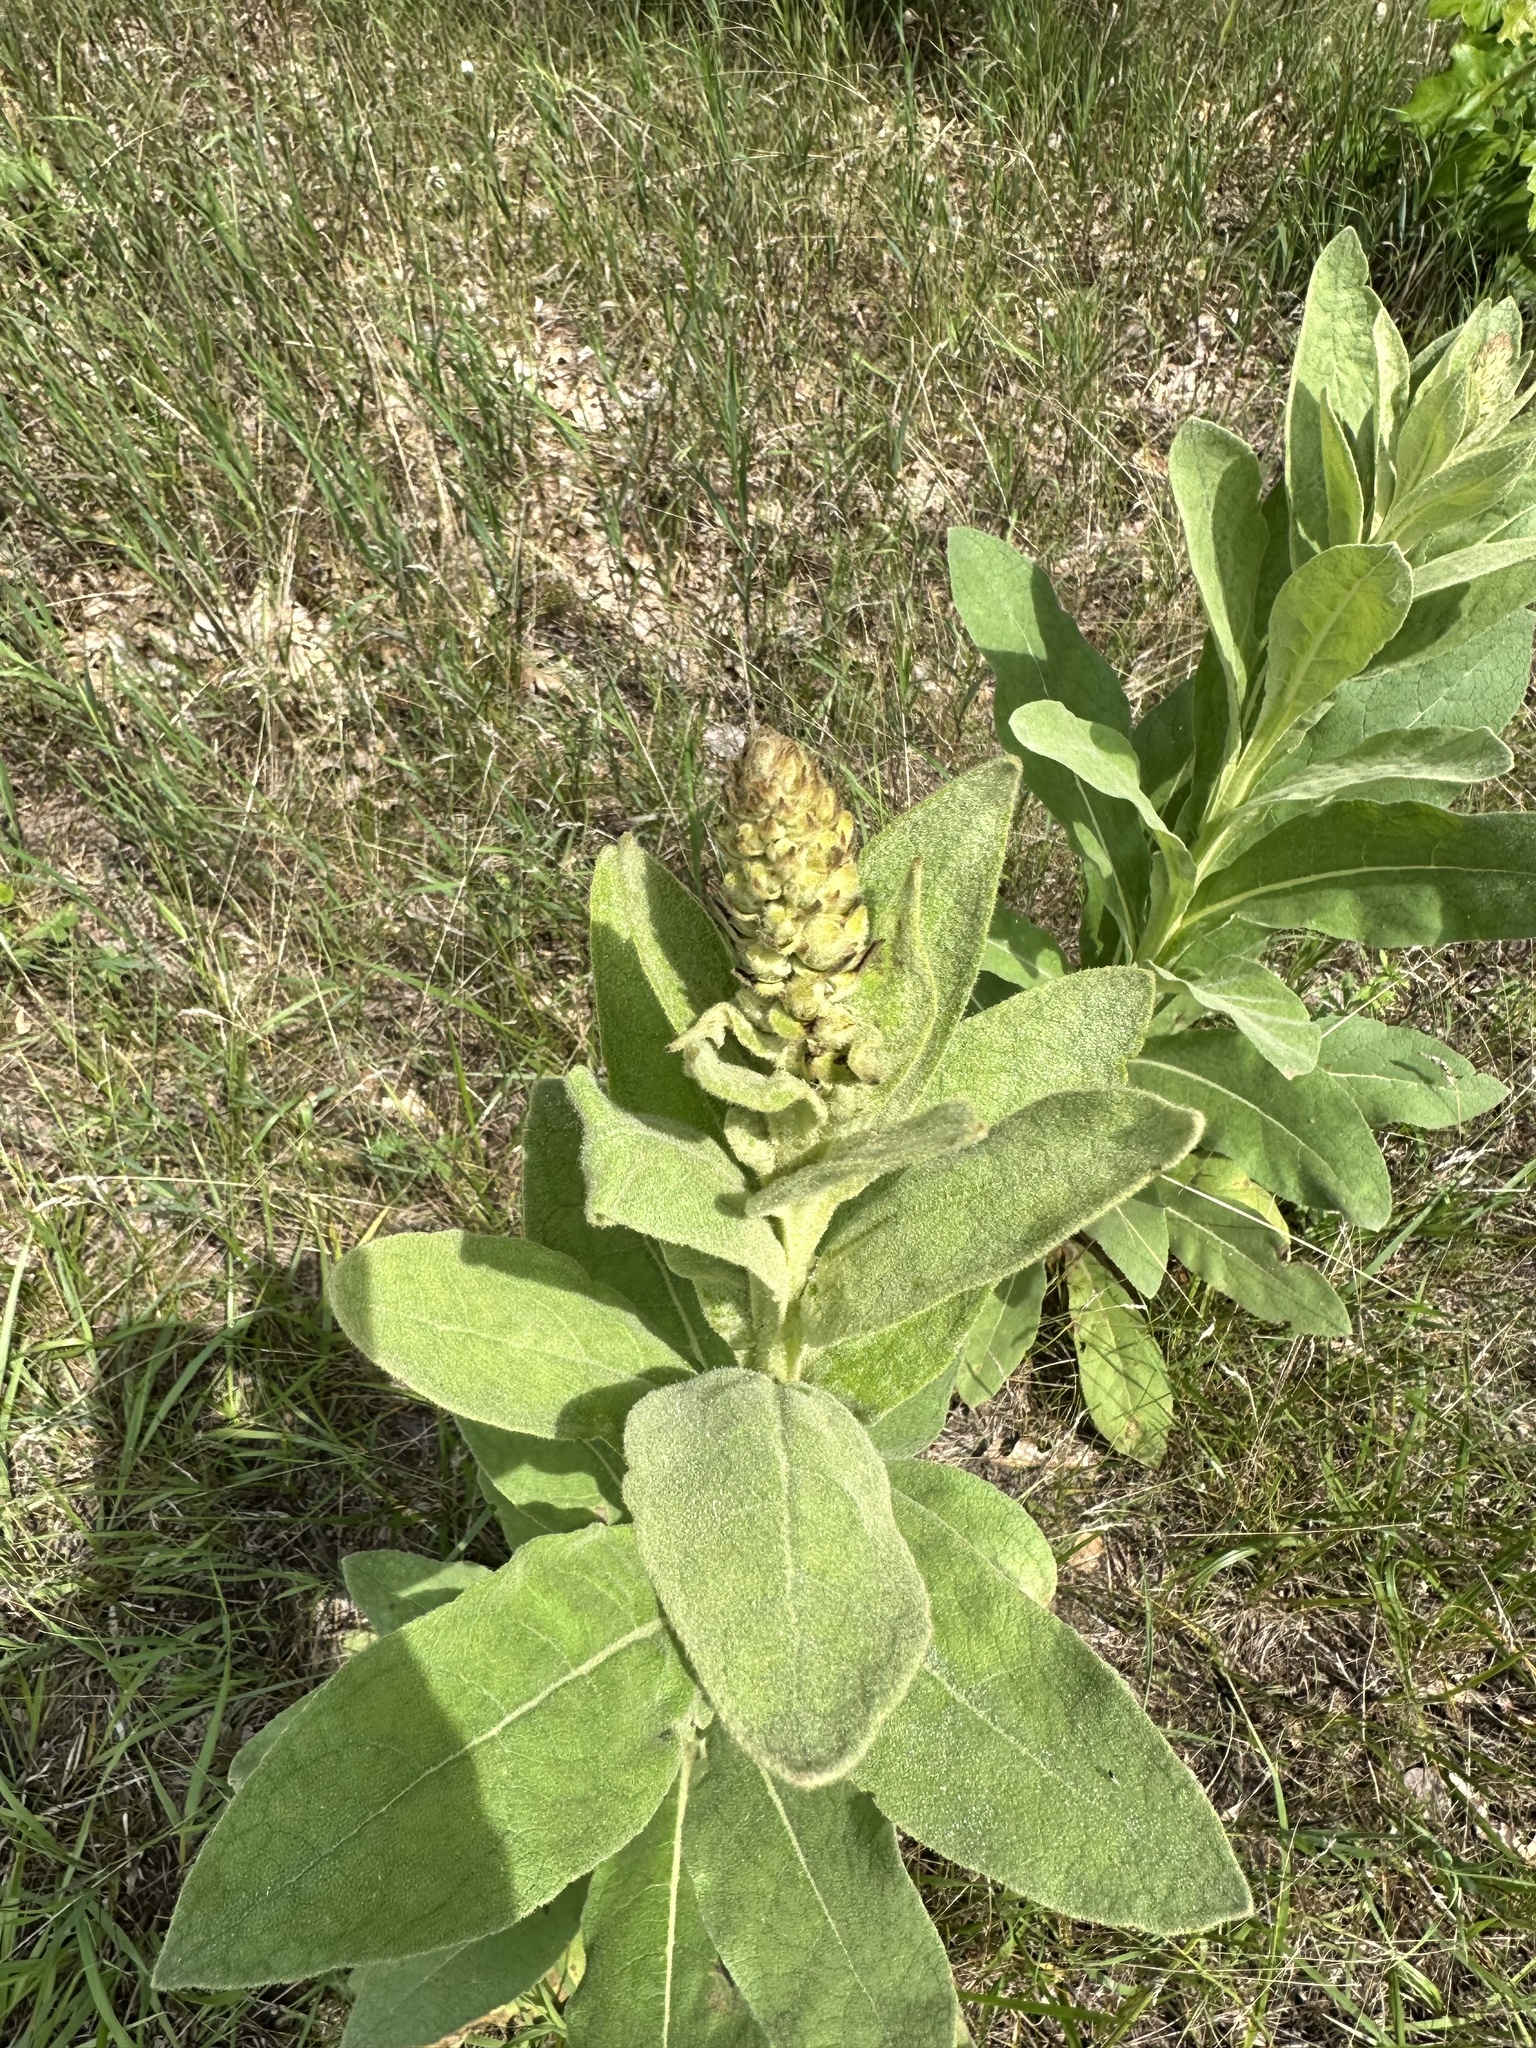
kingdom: Plantae
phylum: Tracheophyta
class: Magnoliopsida
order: Lamiales
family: Scrophulariaceae
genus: Verbascum
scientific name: Verbascum thapsus
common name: Common mullein
